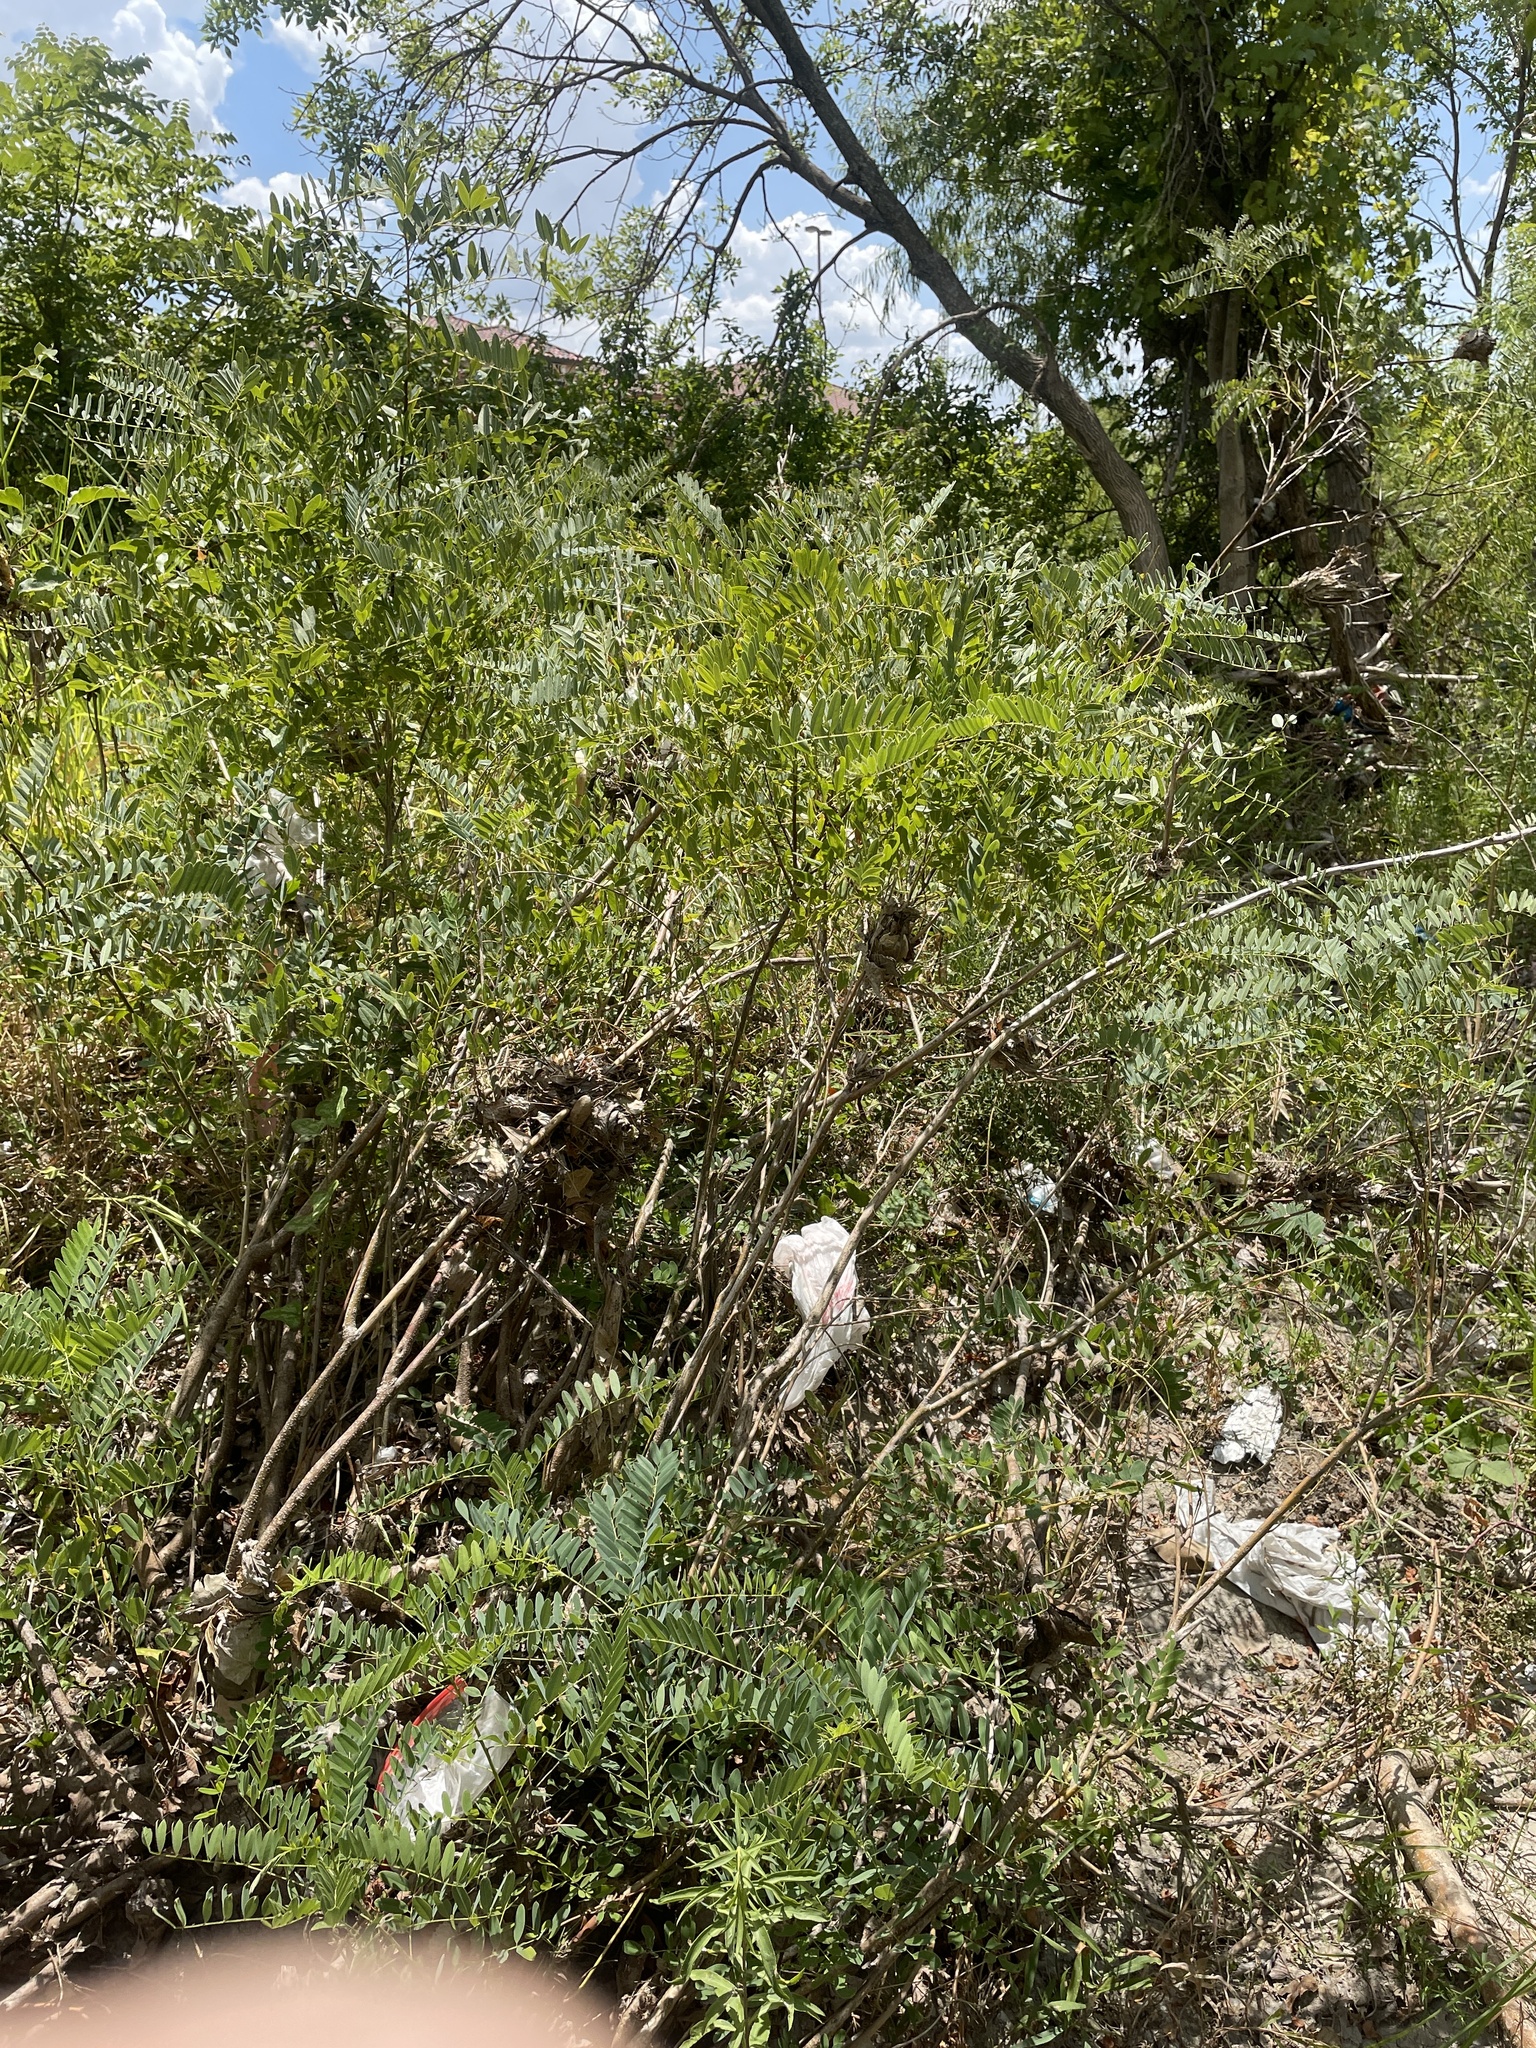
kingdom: Plantae
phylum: Tracheophyta
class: Magnoliopsida
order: Fabales
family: Fabaceae
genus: Amorpha
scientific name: Amorpha fruticosa
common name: False indigo
